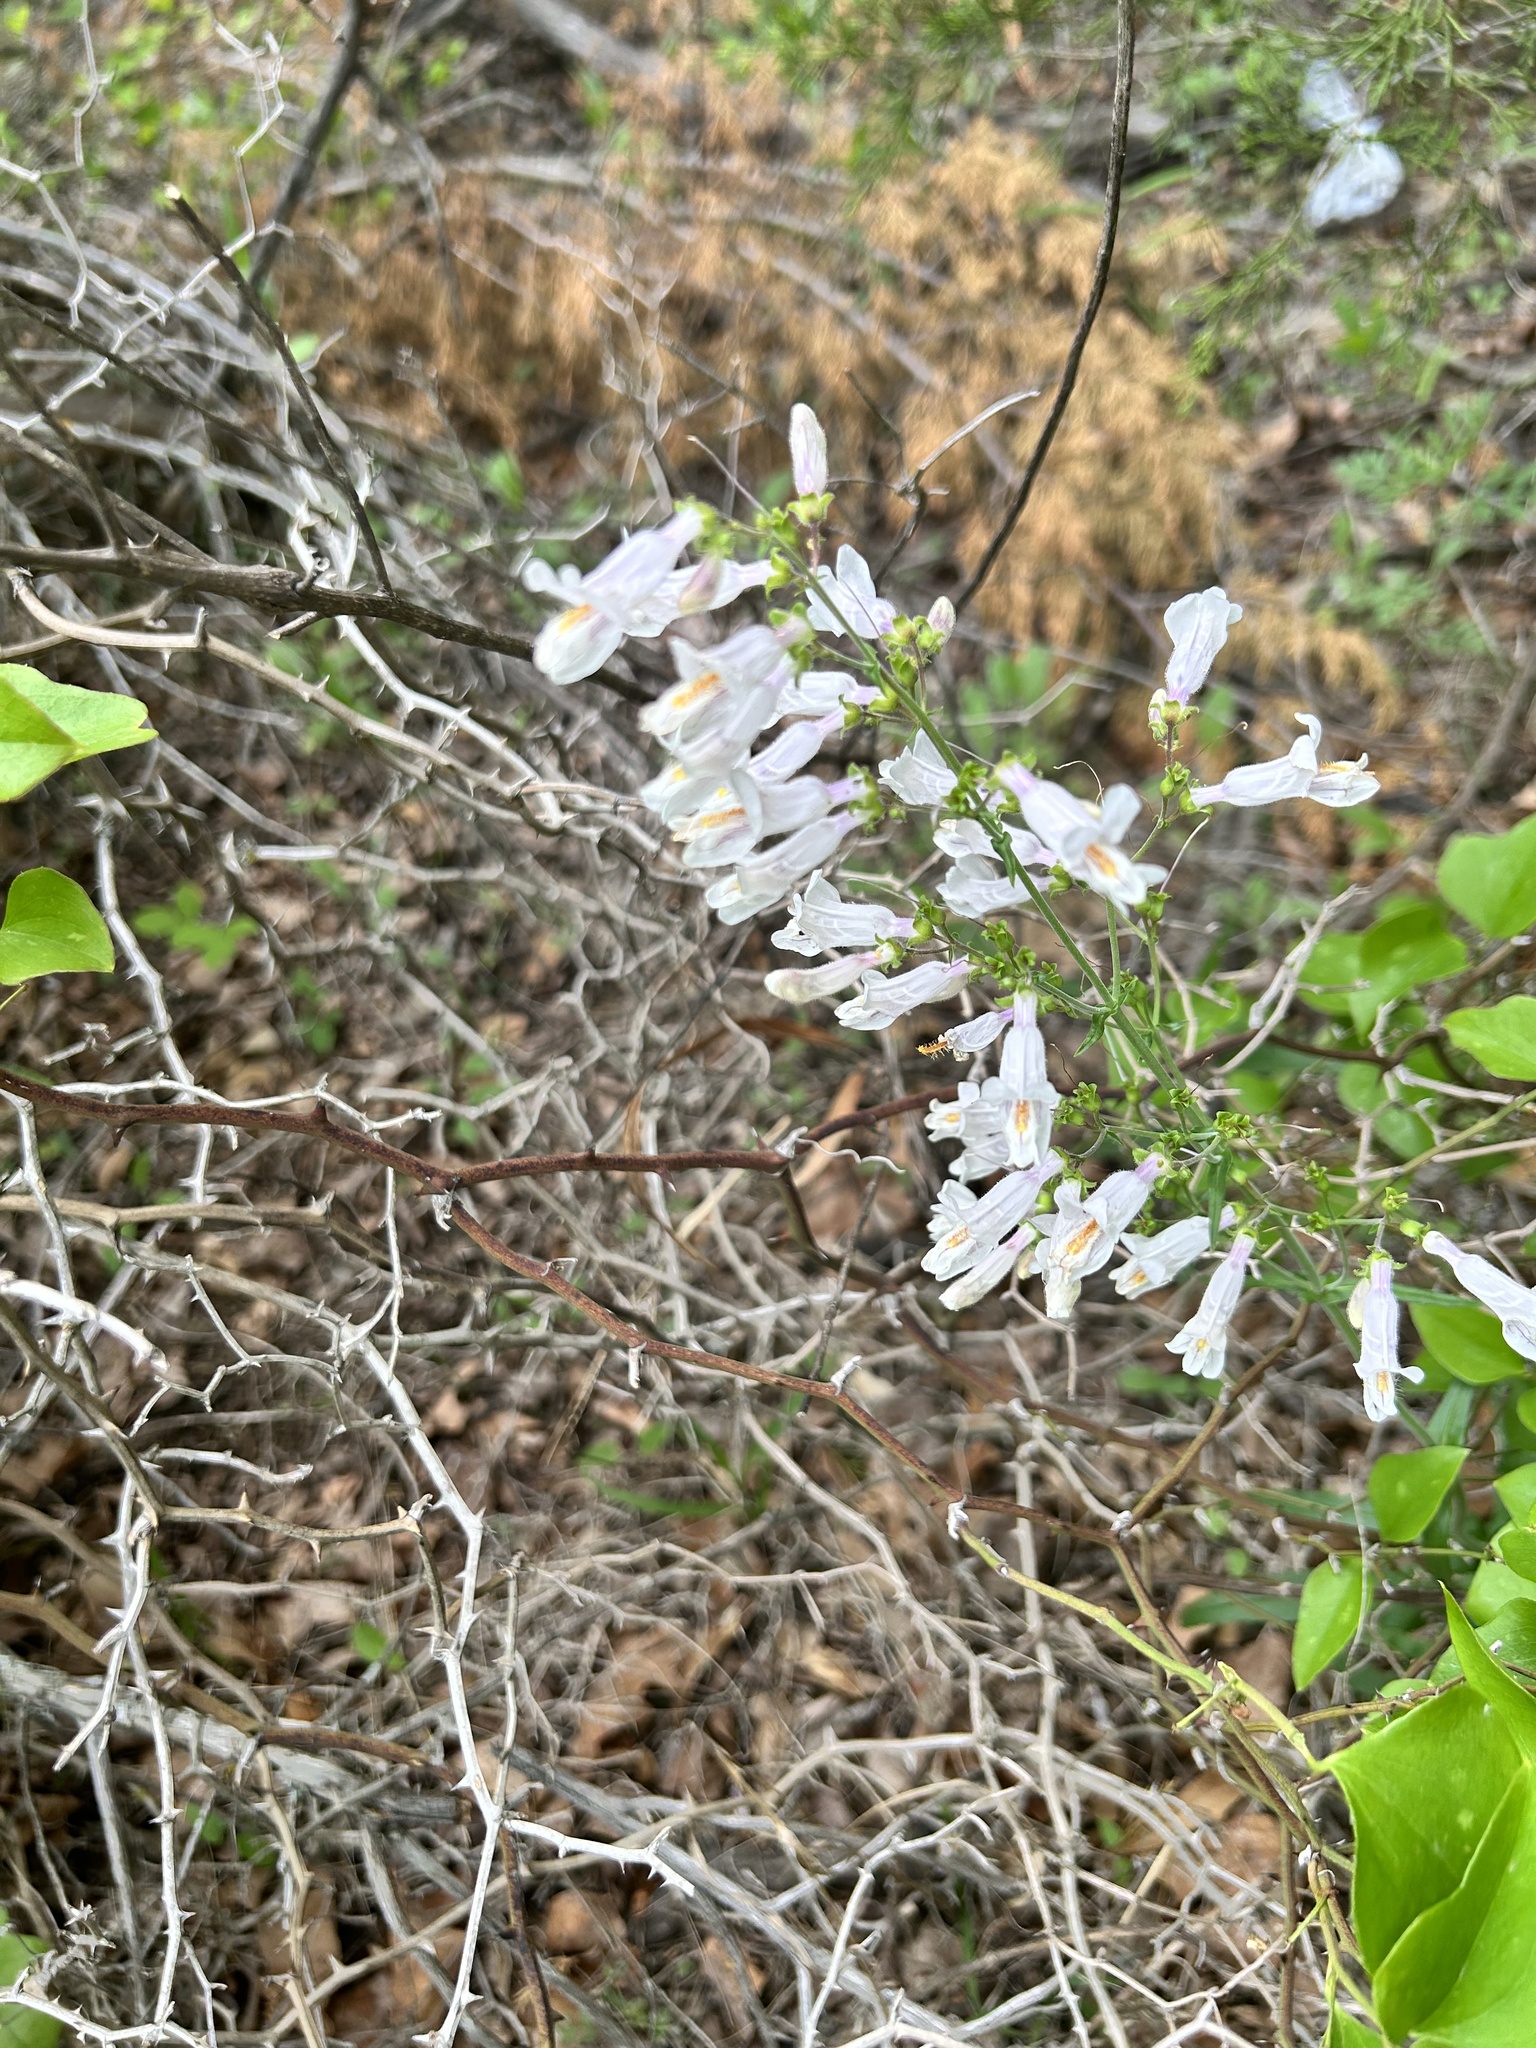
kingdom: Plantae
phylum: Tracheophyta
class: Magnoliopsida
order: Lamiales
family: Plantaginaceae
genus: Penstemon
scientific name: Penstemon laxiflorus
